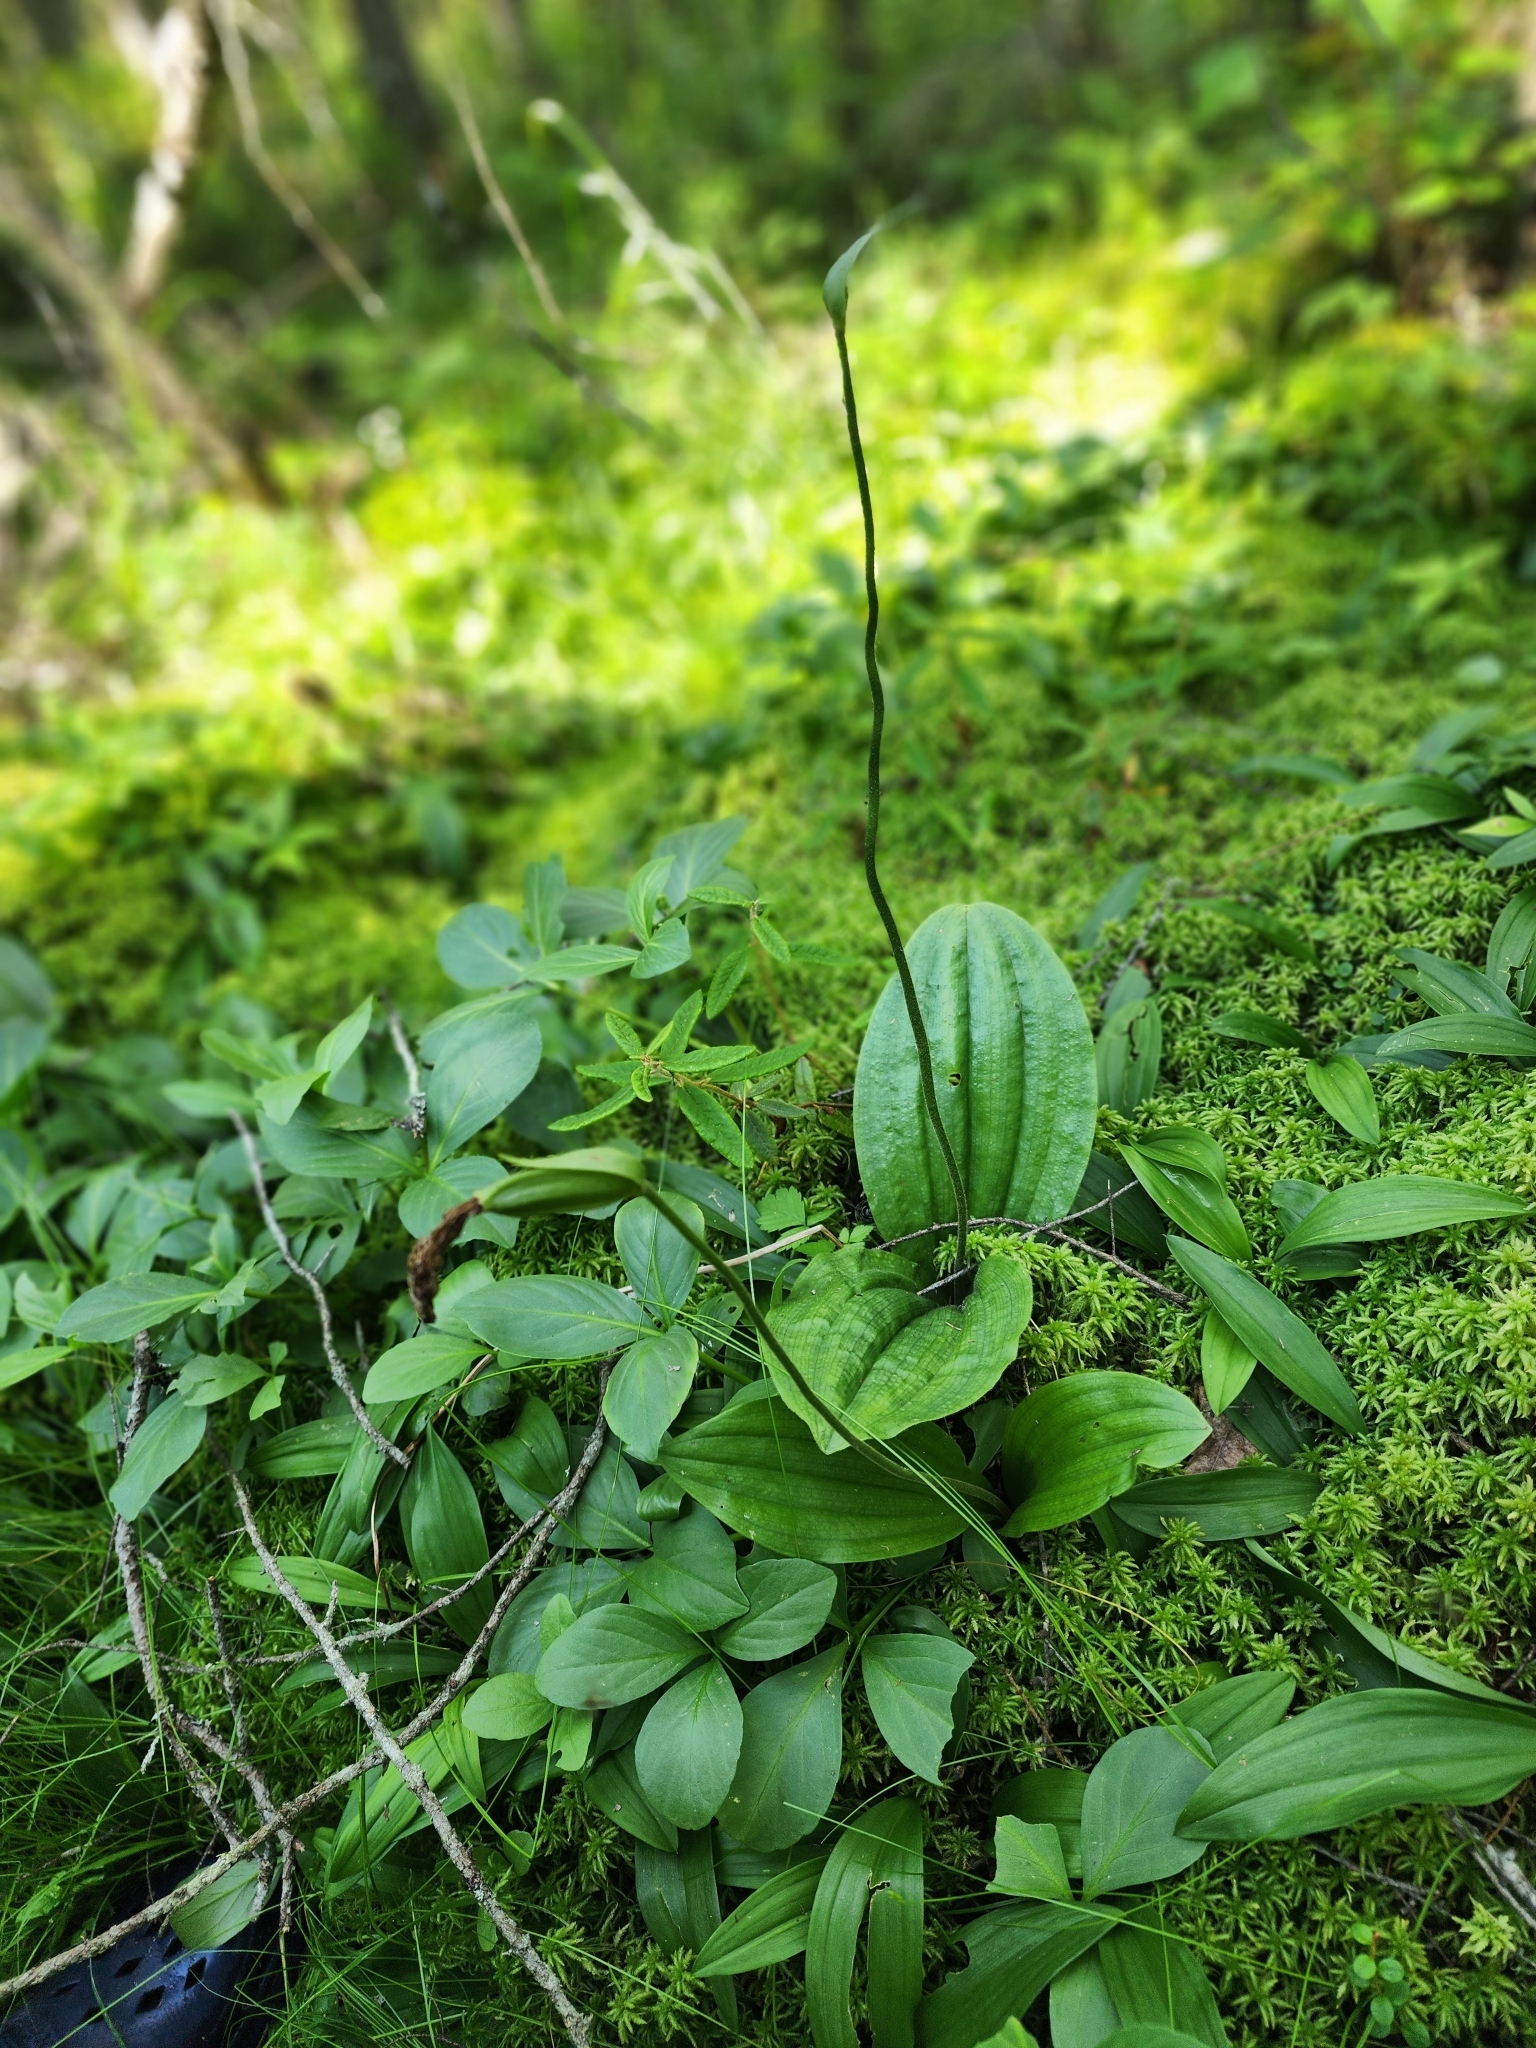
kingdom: Plantae
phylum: Tracheophyta
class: Liliopsida
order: Asparagales
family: Orchidaceae
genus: Cypripedium
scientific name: Cypripedium acaule
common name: Pink lady's-slipper
